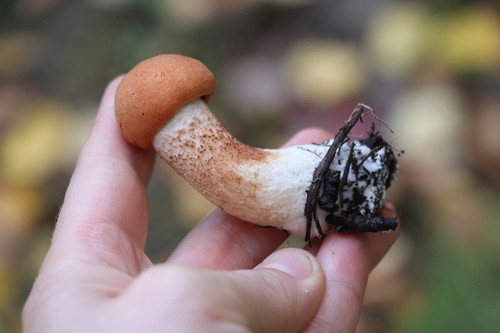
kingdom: Fungi
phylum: Basidiomycota
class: Agaricomycetes
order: Boletales
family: Boletaceae
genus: Leccinum
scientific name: Leccinum aurantiacum
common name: Orange bolete
